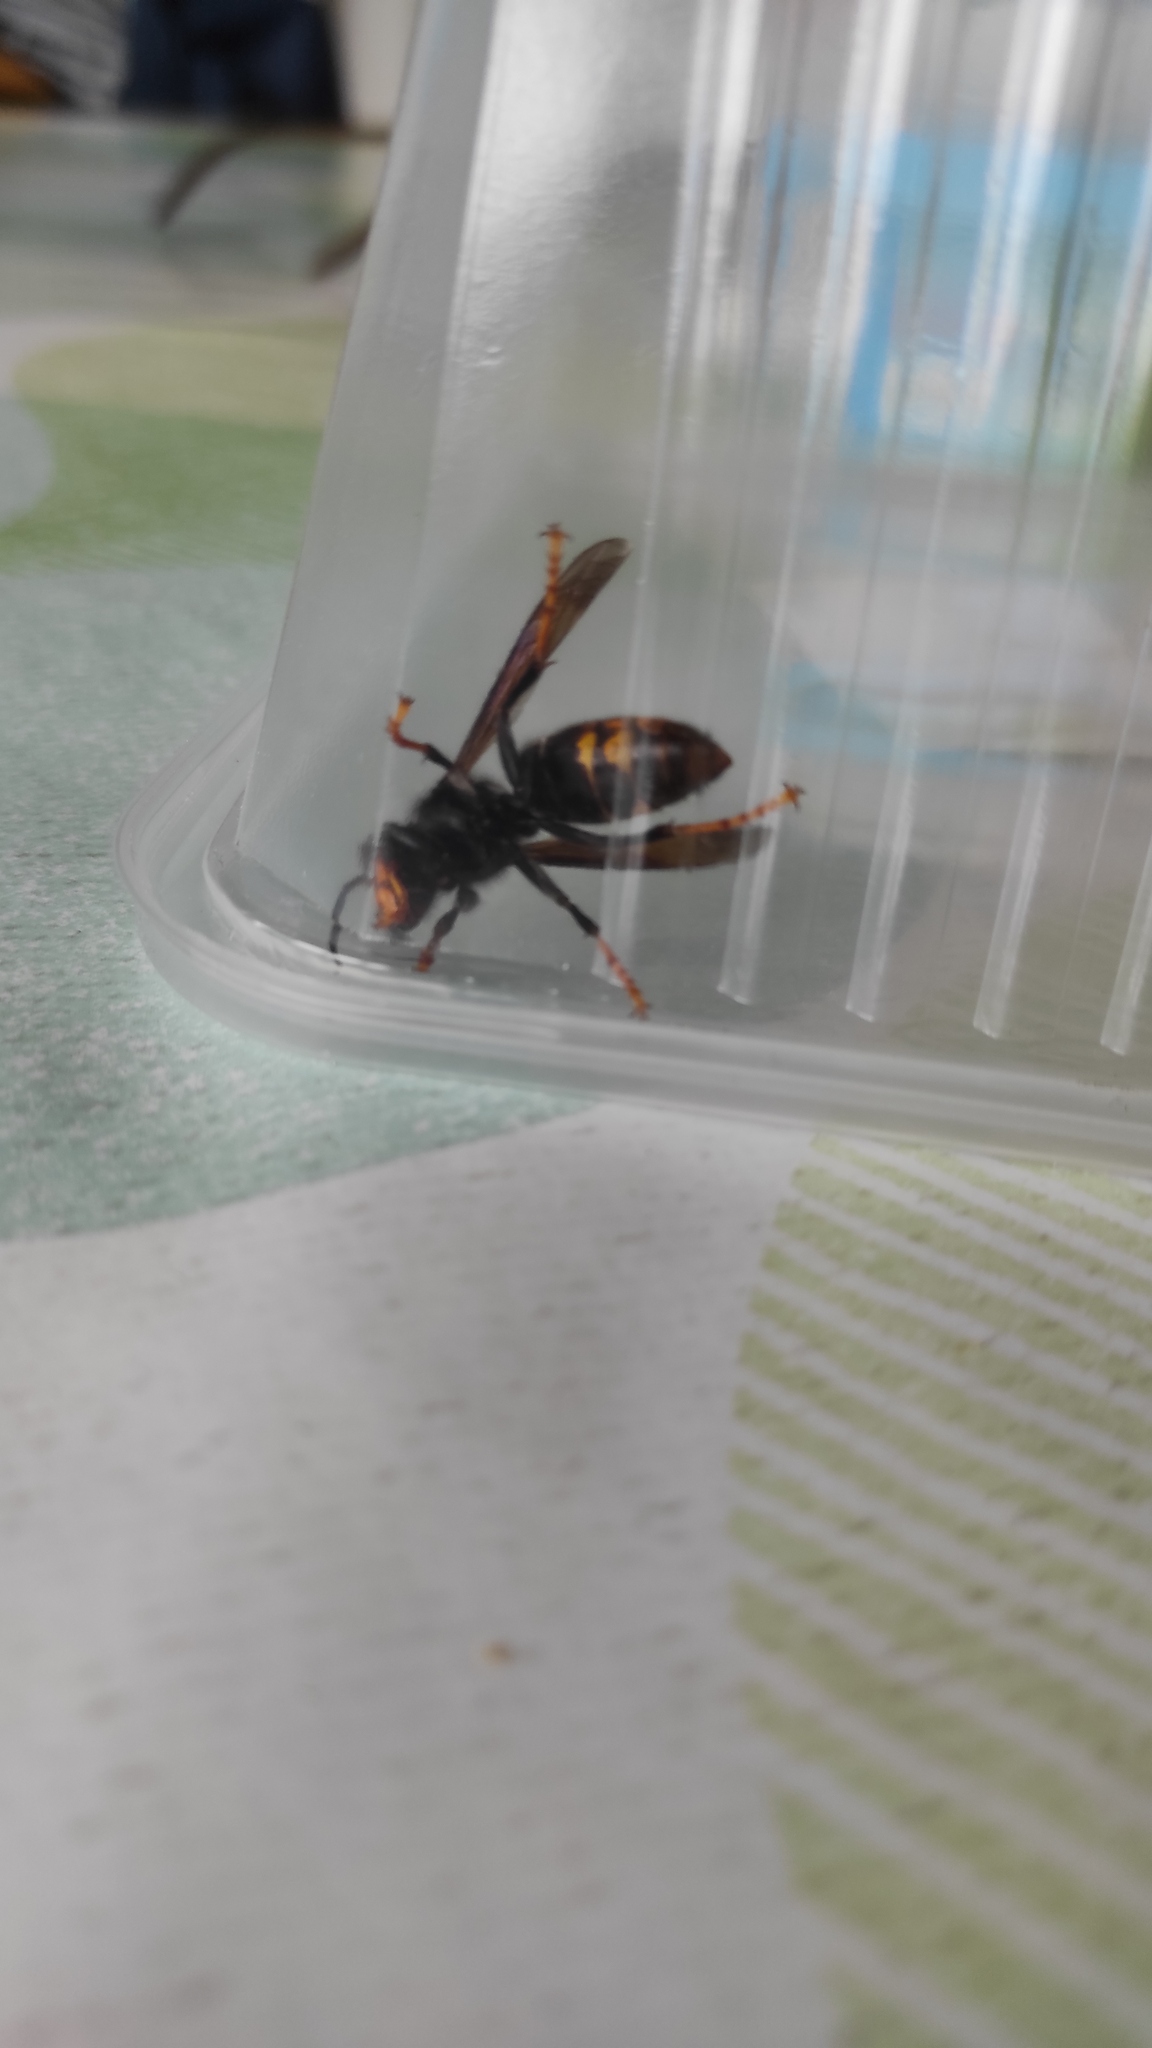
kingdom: Animalia
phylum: Arthropoda
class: Insecta
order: Hymenoptera
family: Vespidae
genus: Vespa
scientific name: Vespa velutina
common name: Asian hornet
